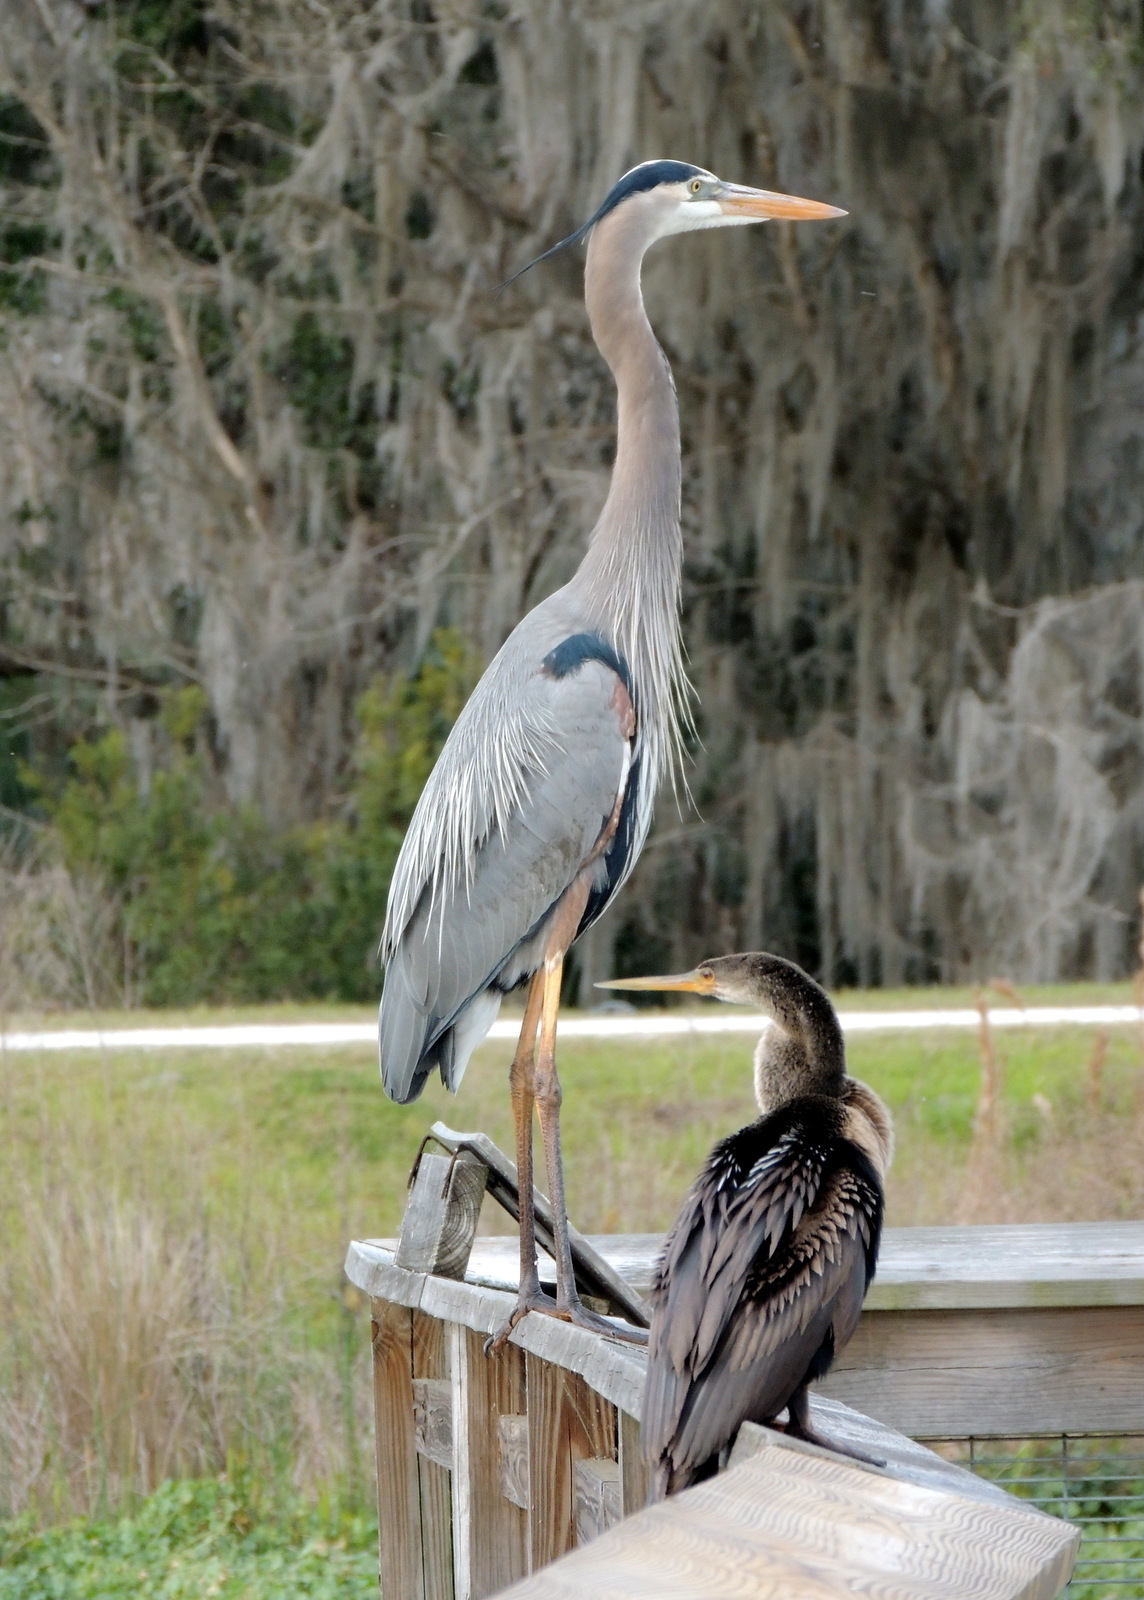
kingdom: Animalia
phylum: Chordata
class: Aves
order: Pelecaniformes
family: Ardeidae
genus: Ardea
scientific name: Ardea herodias
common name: Great blue heron
